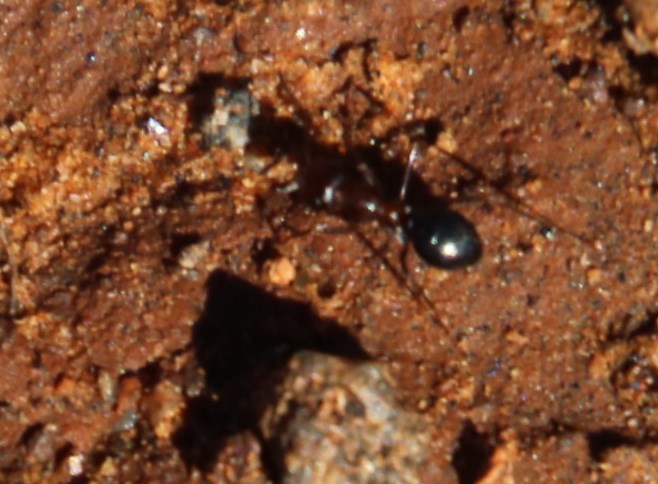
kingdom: Animalia
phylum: Arthropoda
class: Insecta
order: Hymenoptera
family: Formicidae
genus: Anoplolepis
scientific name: Anoplolepis steingroeveri
